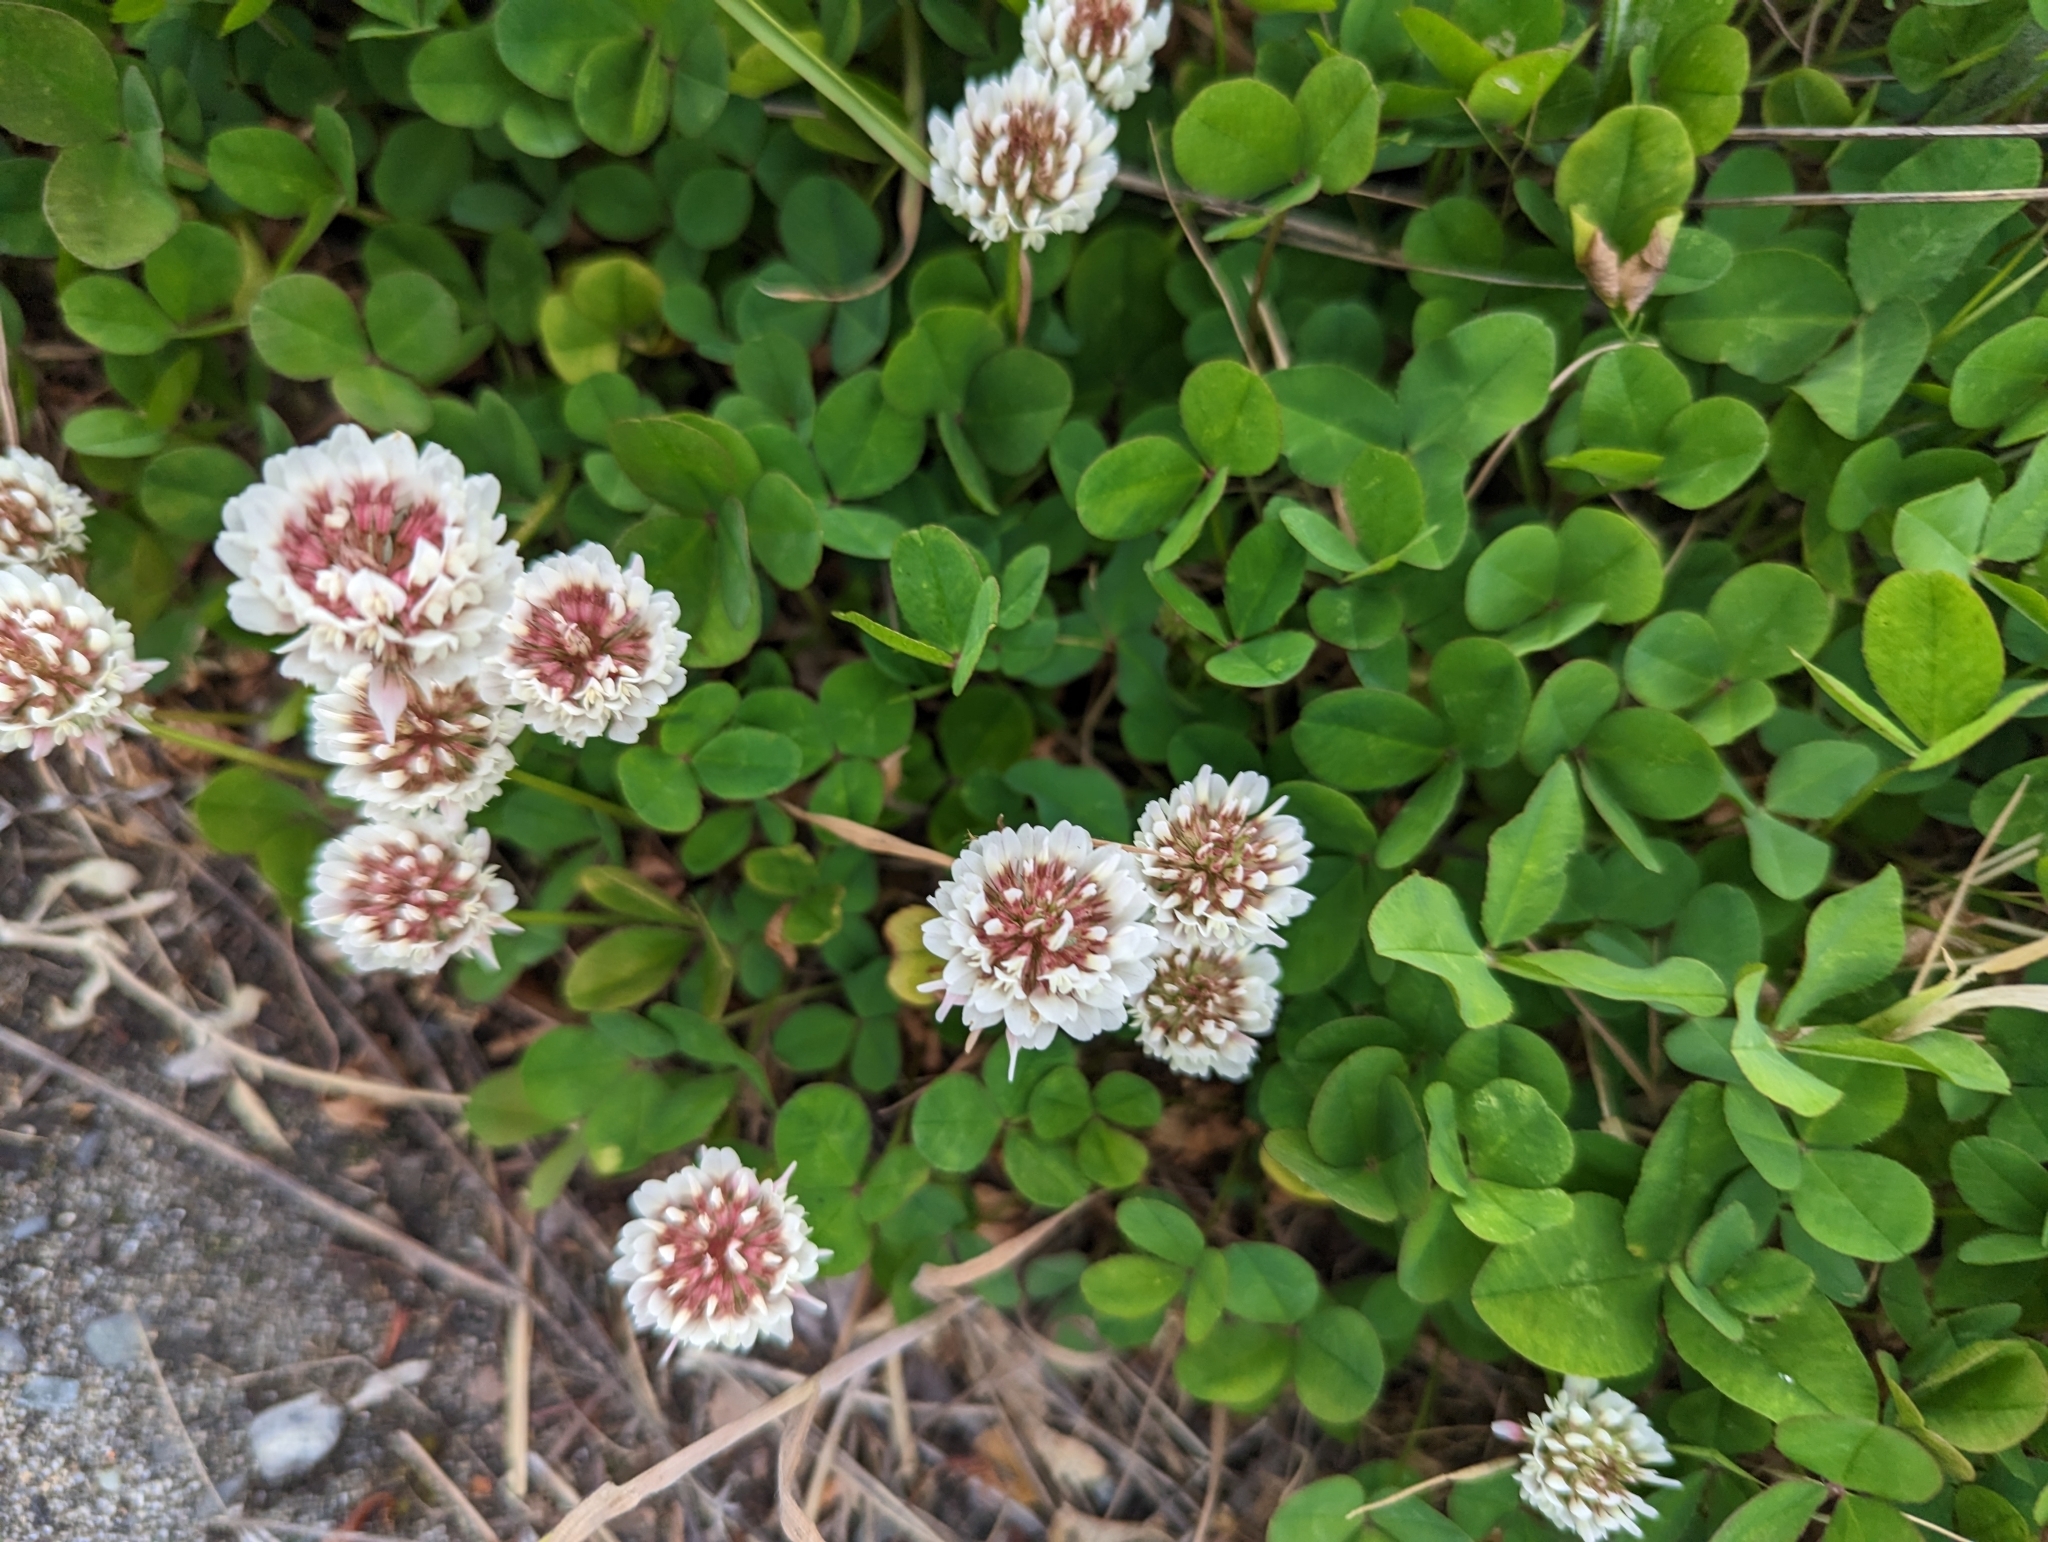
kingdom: Plantae
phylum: Tracheophyta
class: Magnoliopsida
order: Fabales
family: Fabaceae
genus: Trifolium
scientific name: Trifolium repens
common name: White clover
